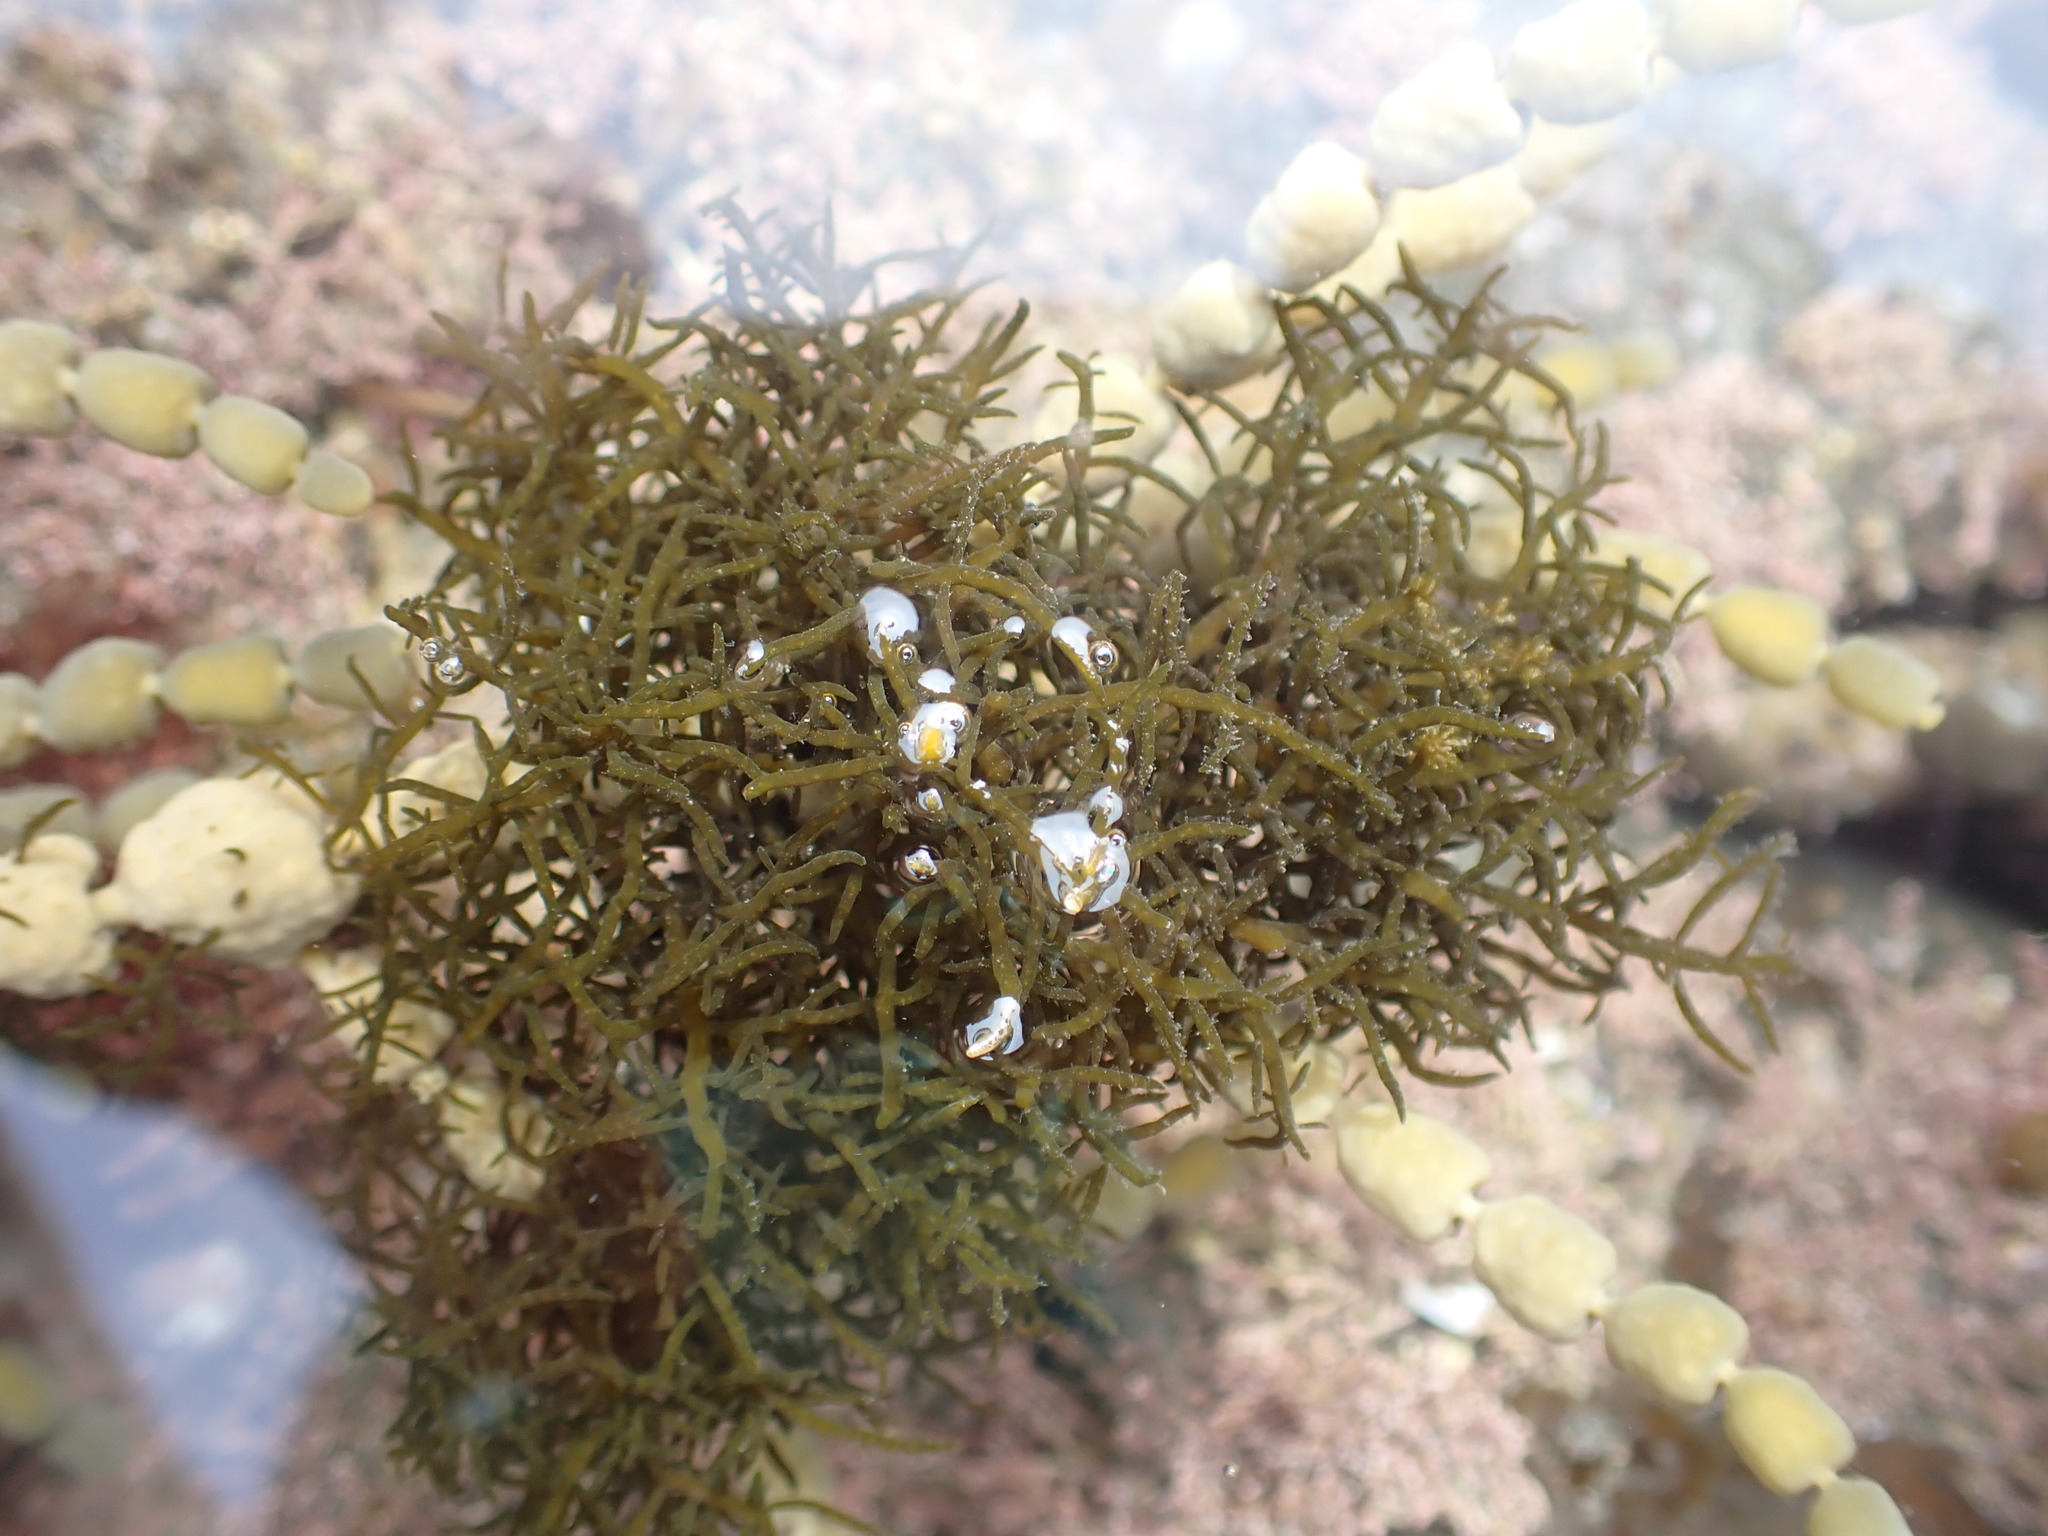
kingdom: Chromista
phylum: Ochrophyta
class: Phaeophyceae
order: Scytothamnales
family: Scytothamnaceae
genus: Scytothamnus
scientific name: Scytothamnus australis
